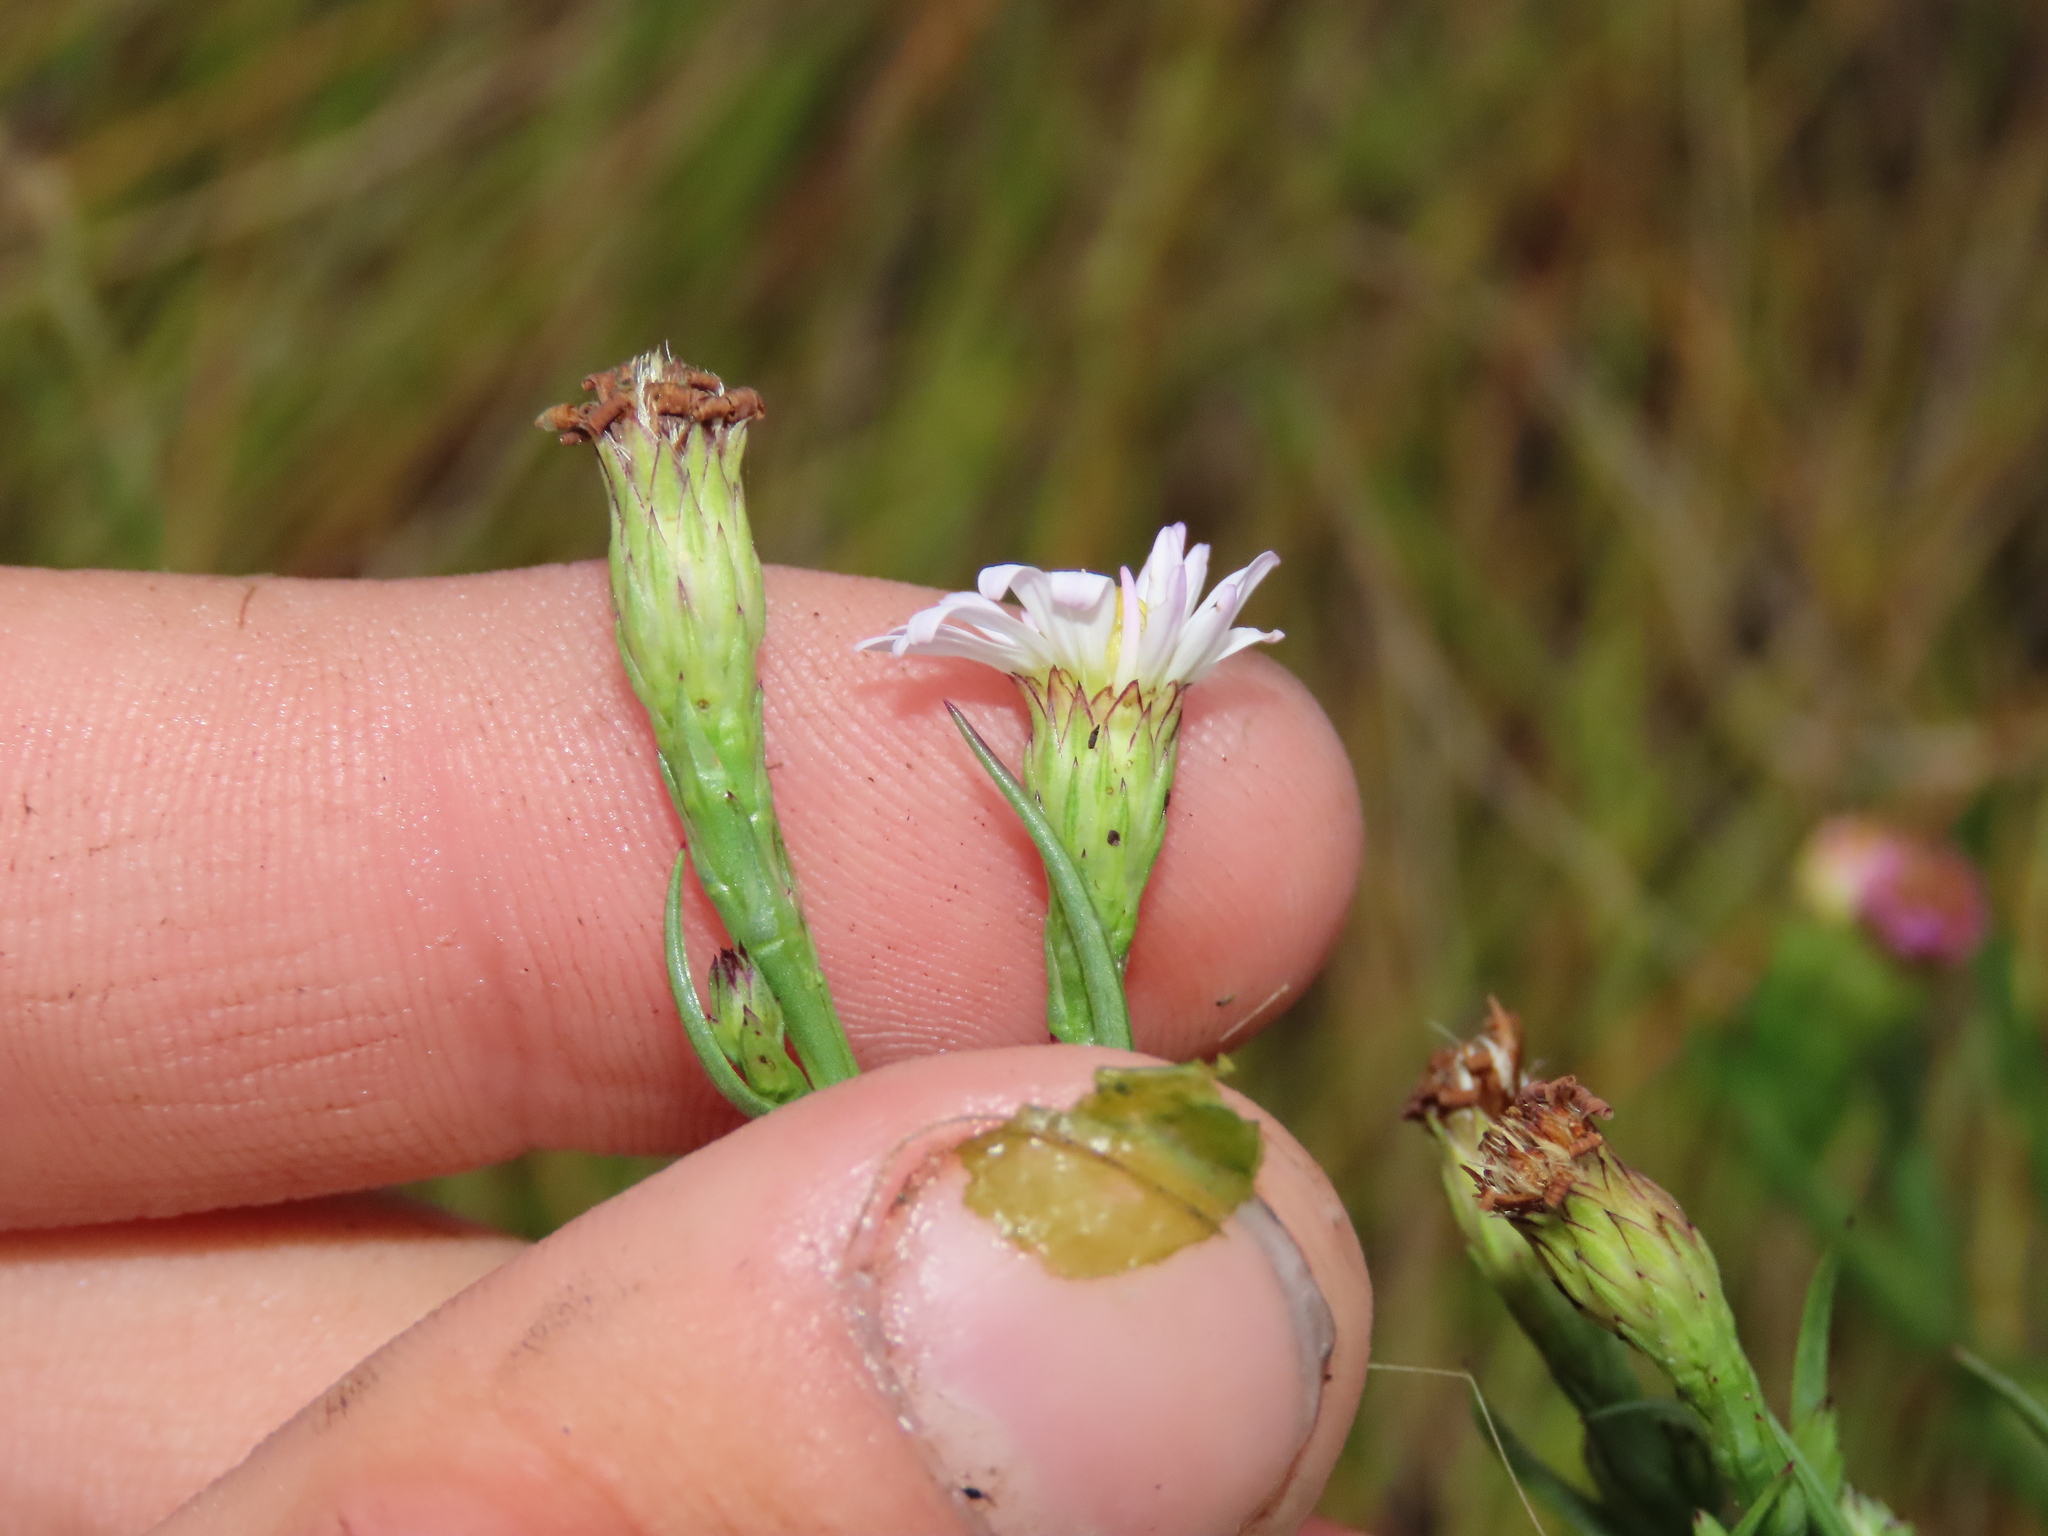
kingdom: Plantae
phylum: Tracheophyta
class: Magnoliopsida
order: Asterales
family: Asteraceae
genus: Symphyotrichum
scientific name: Symphyotrichum tenuifolium
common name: Perennial salt-marsh aster
